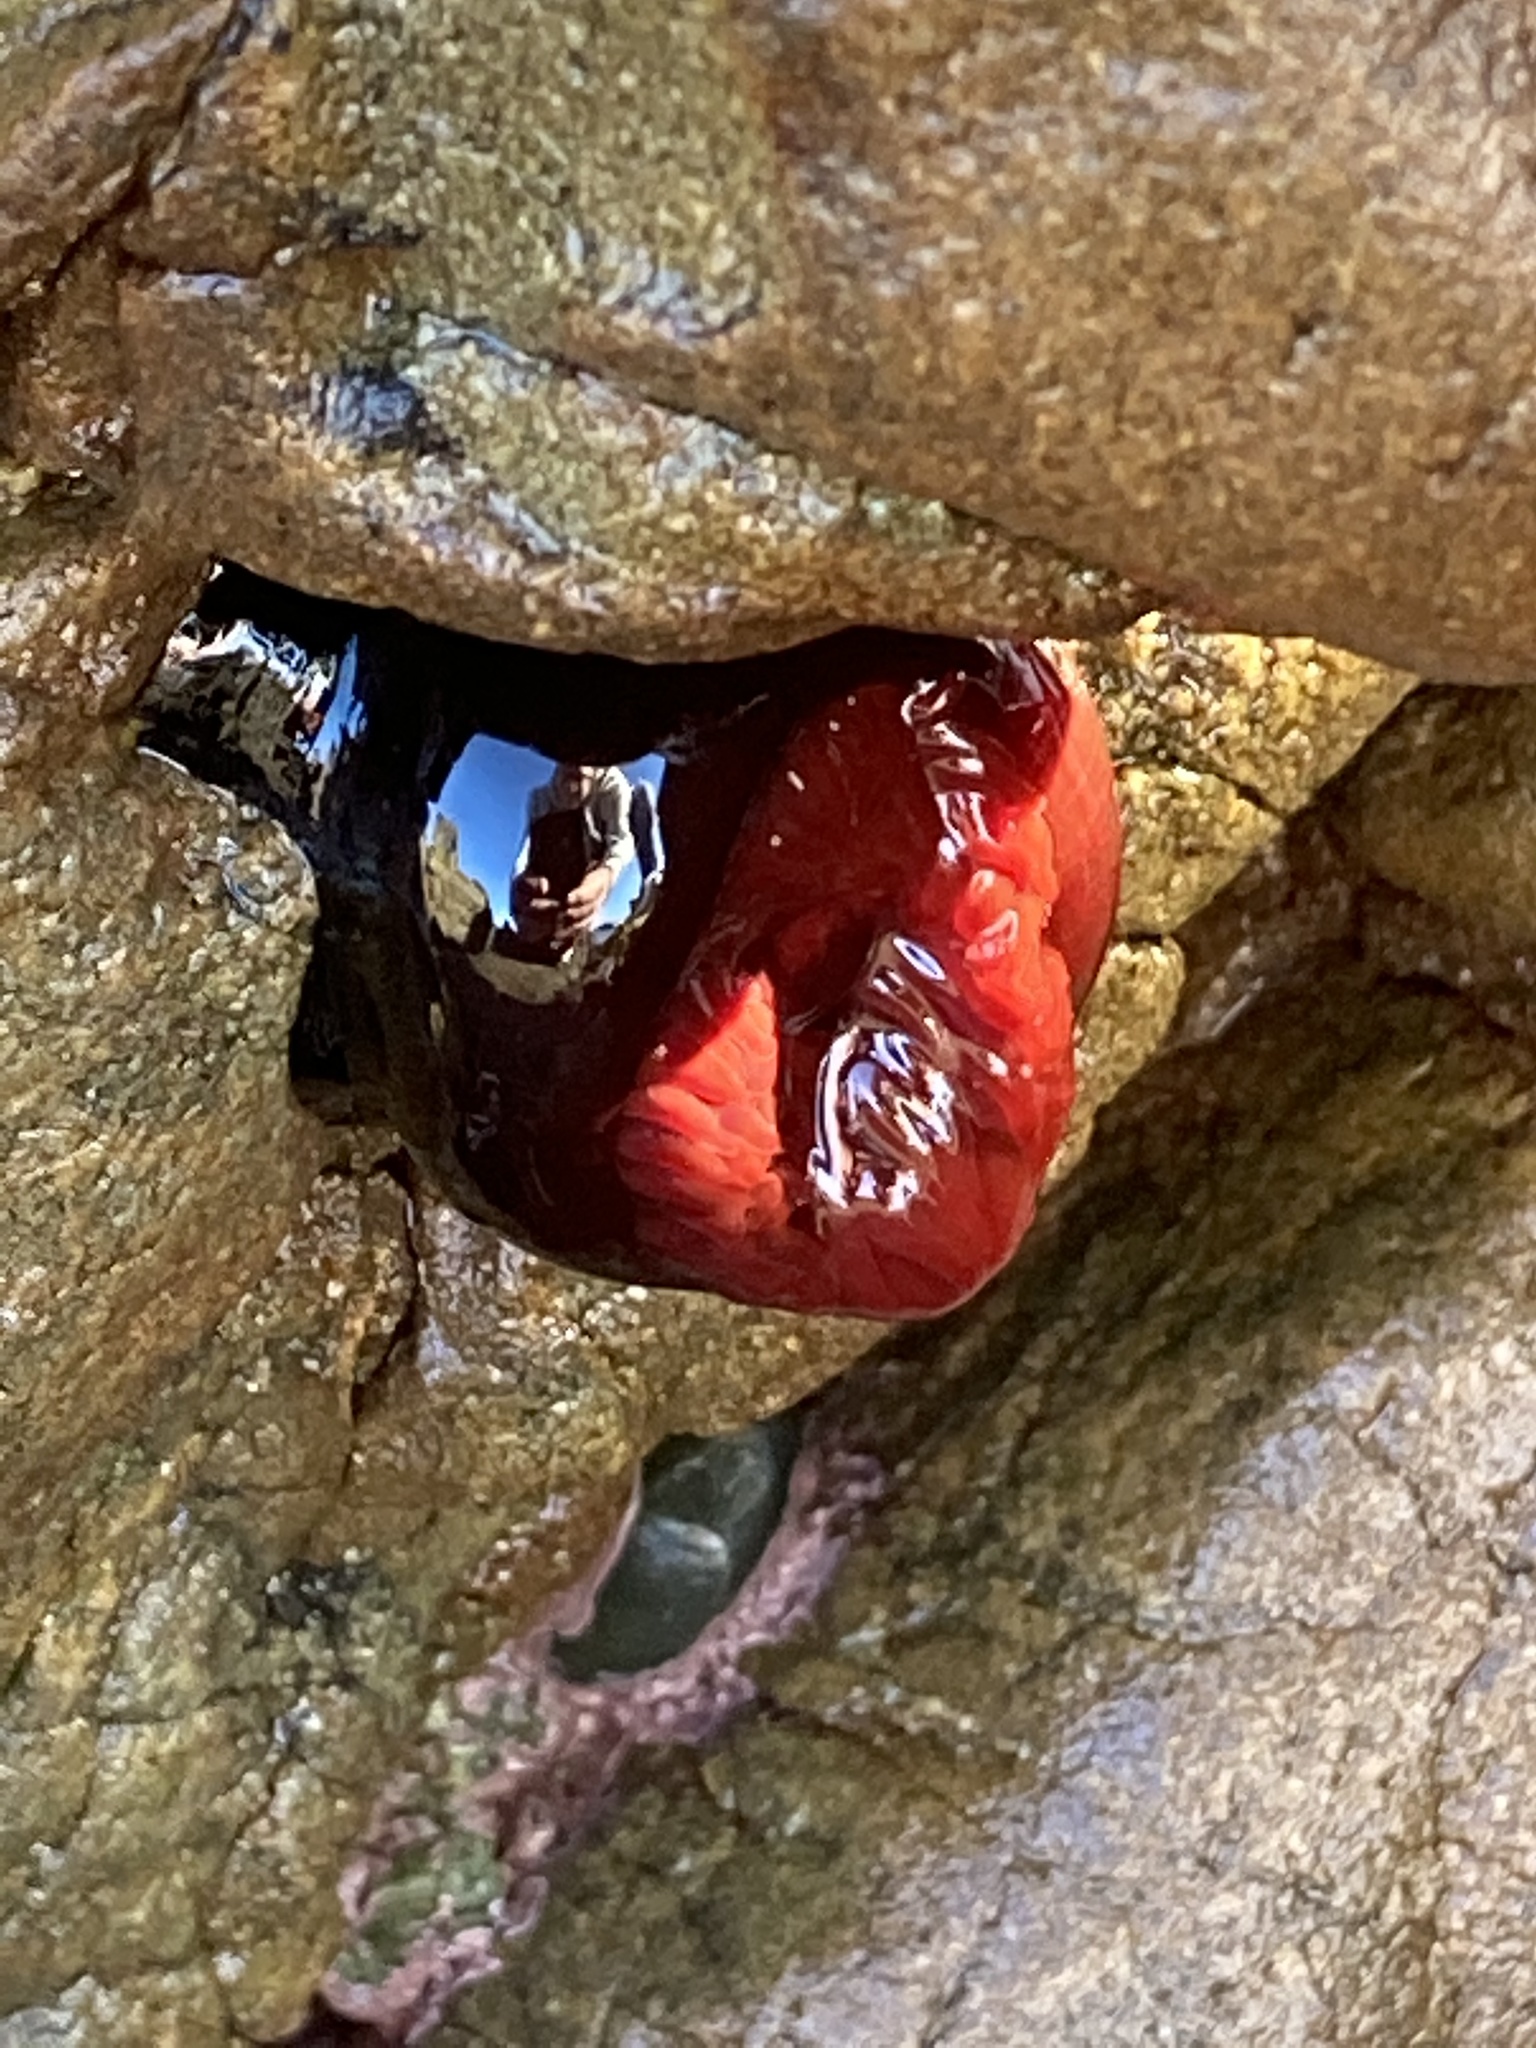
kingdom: Animalia
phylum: Cnidaria
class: Anthozoa
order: Actiniaria
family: Actiniidae
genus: Actinia
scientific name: Actinia tenebrosa
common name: Waratah anemone
